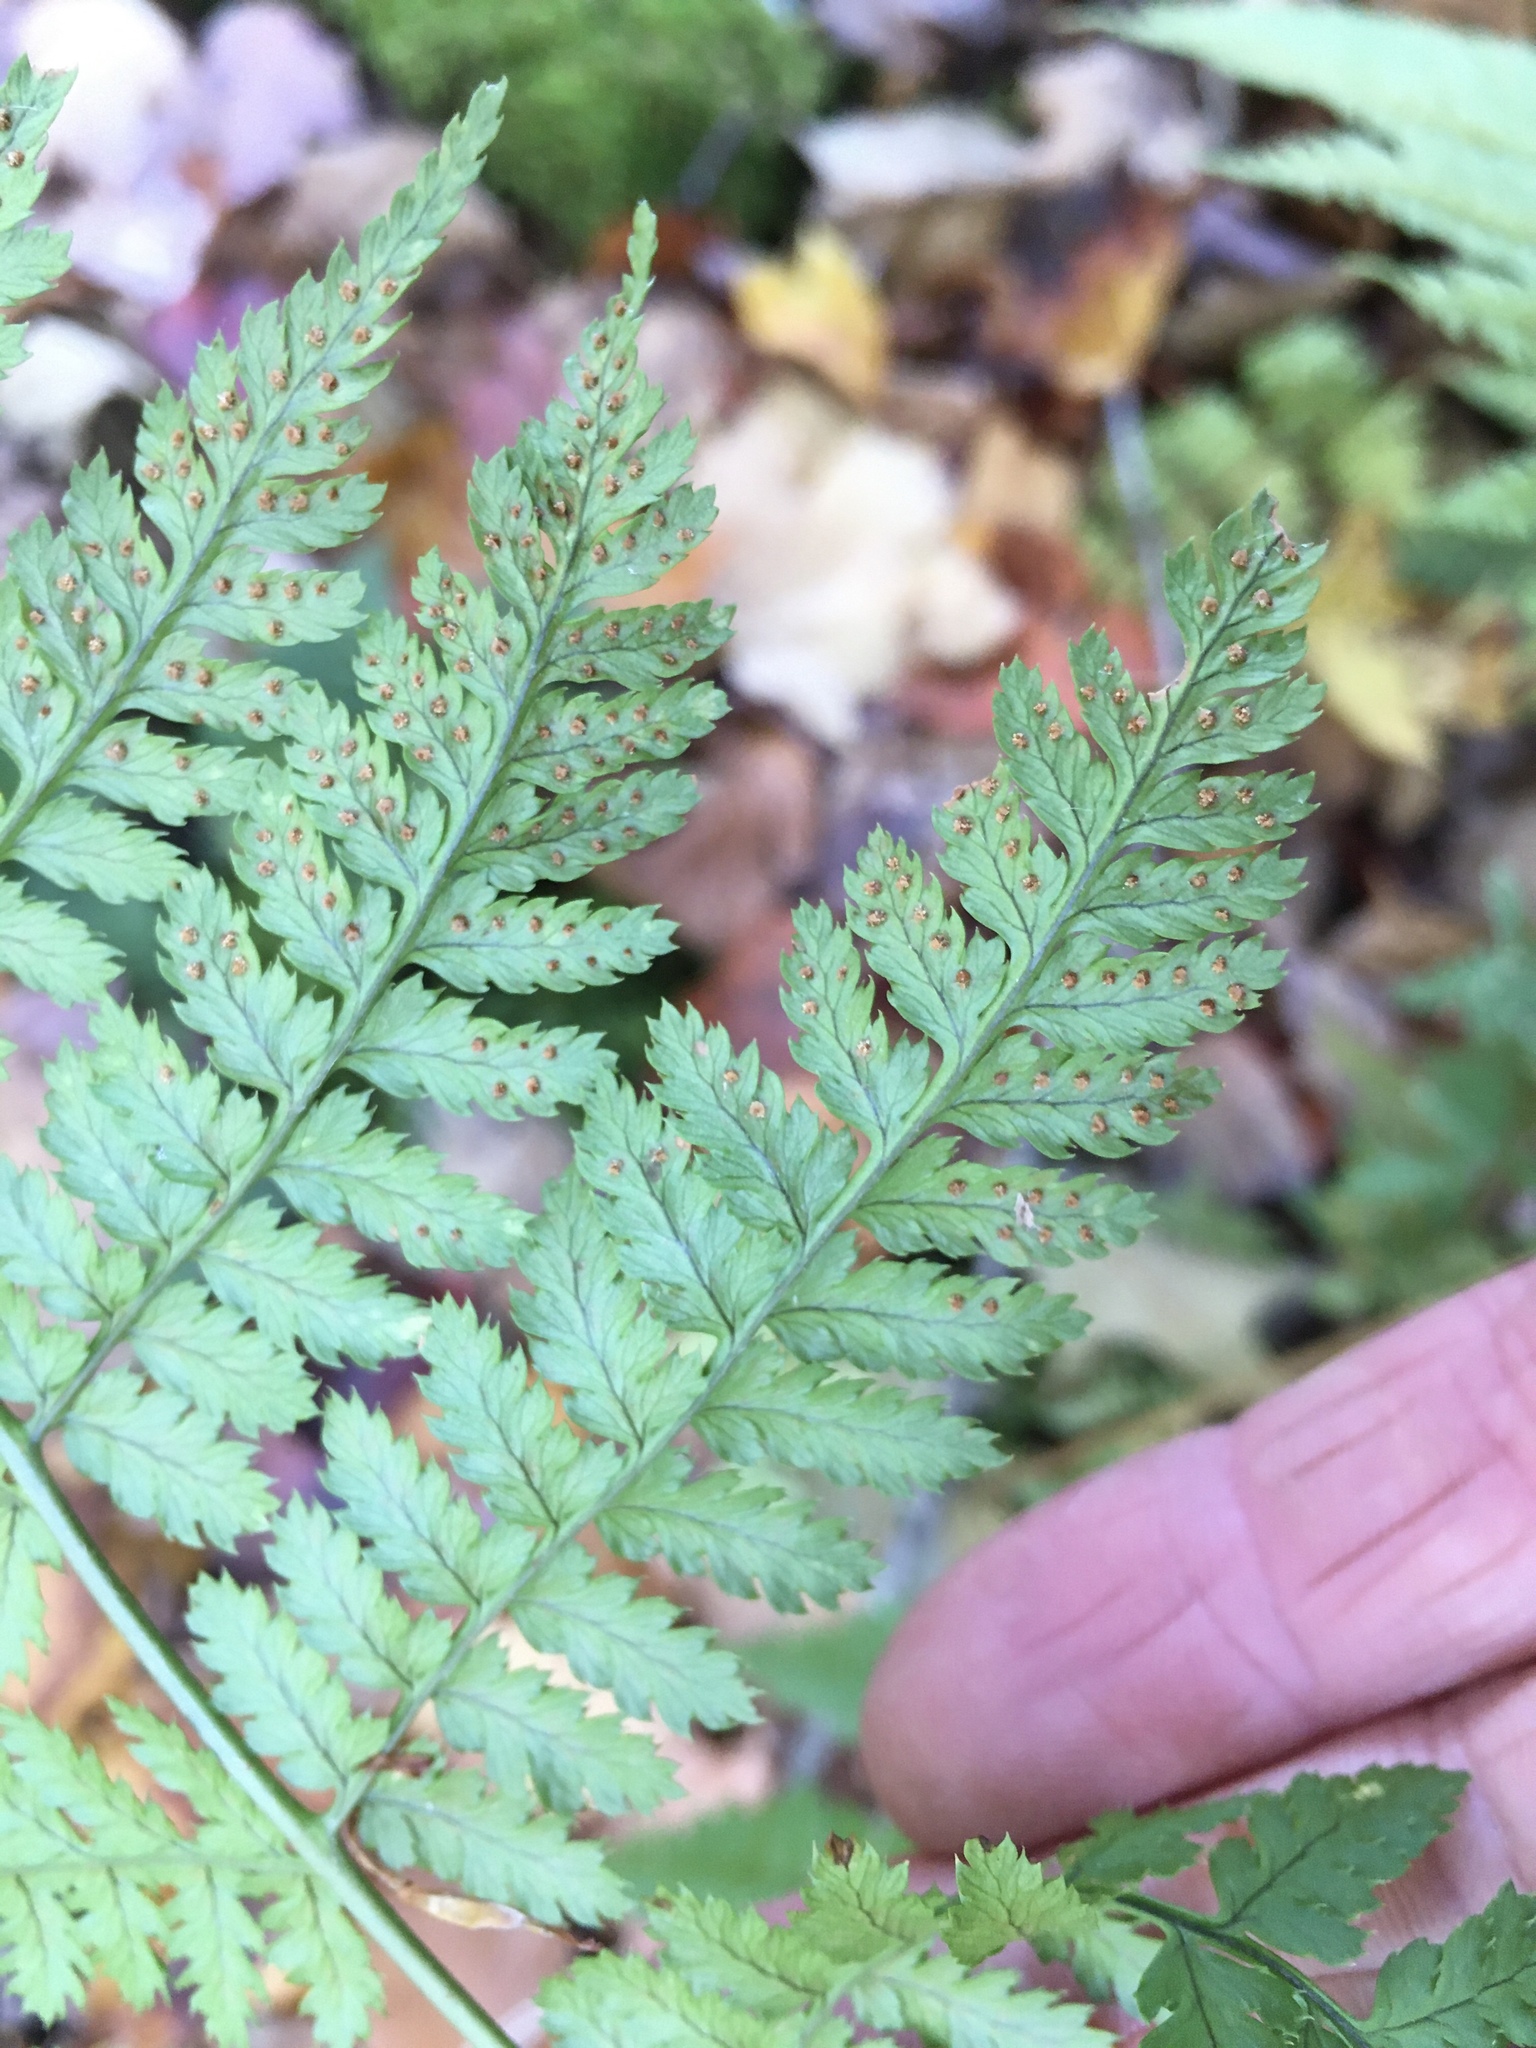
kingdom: Plantae
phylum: Tracheophyta
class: Polypodiopsida
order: Polypodiales
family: Dryopteridaceae
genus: Dryopteris
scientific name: Dryopteris intermedia
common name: Evergreen wood fern
